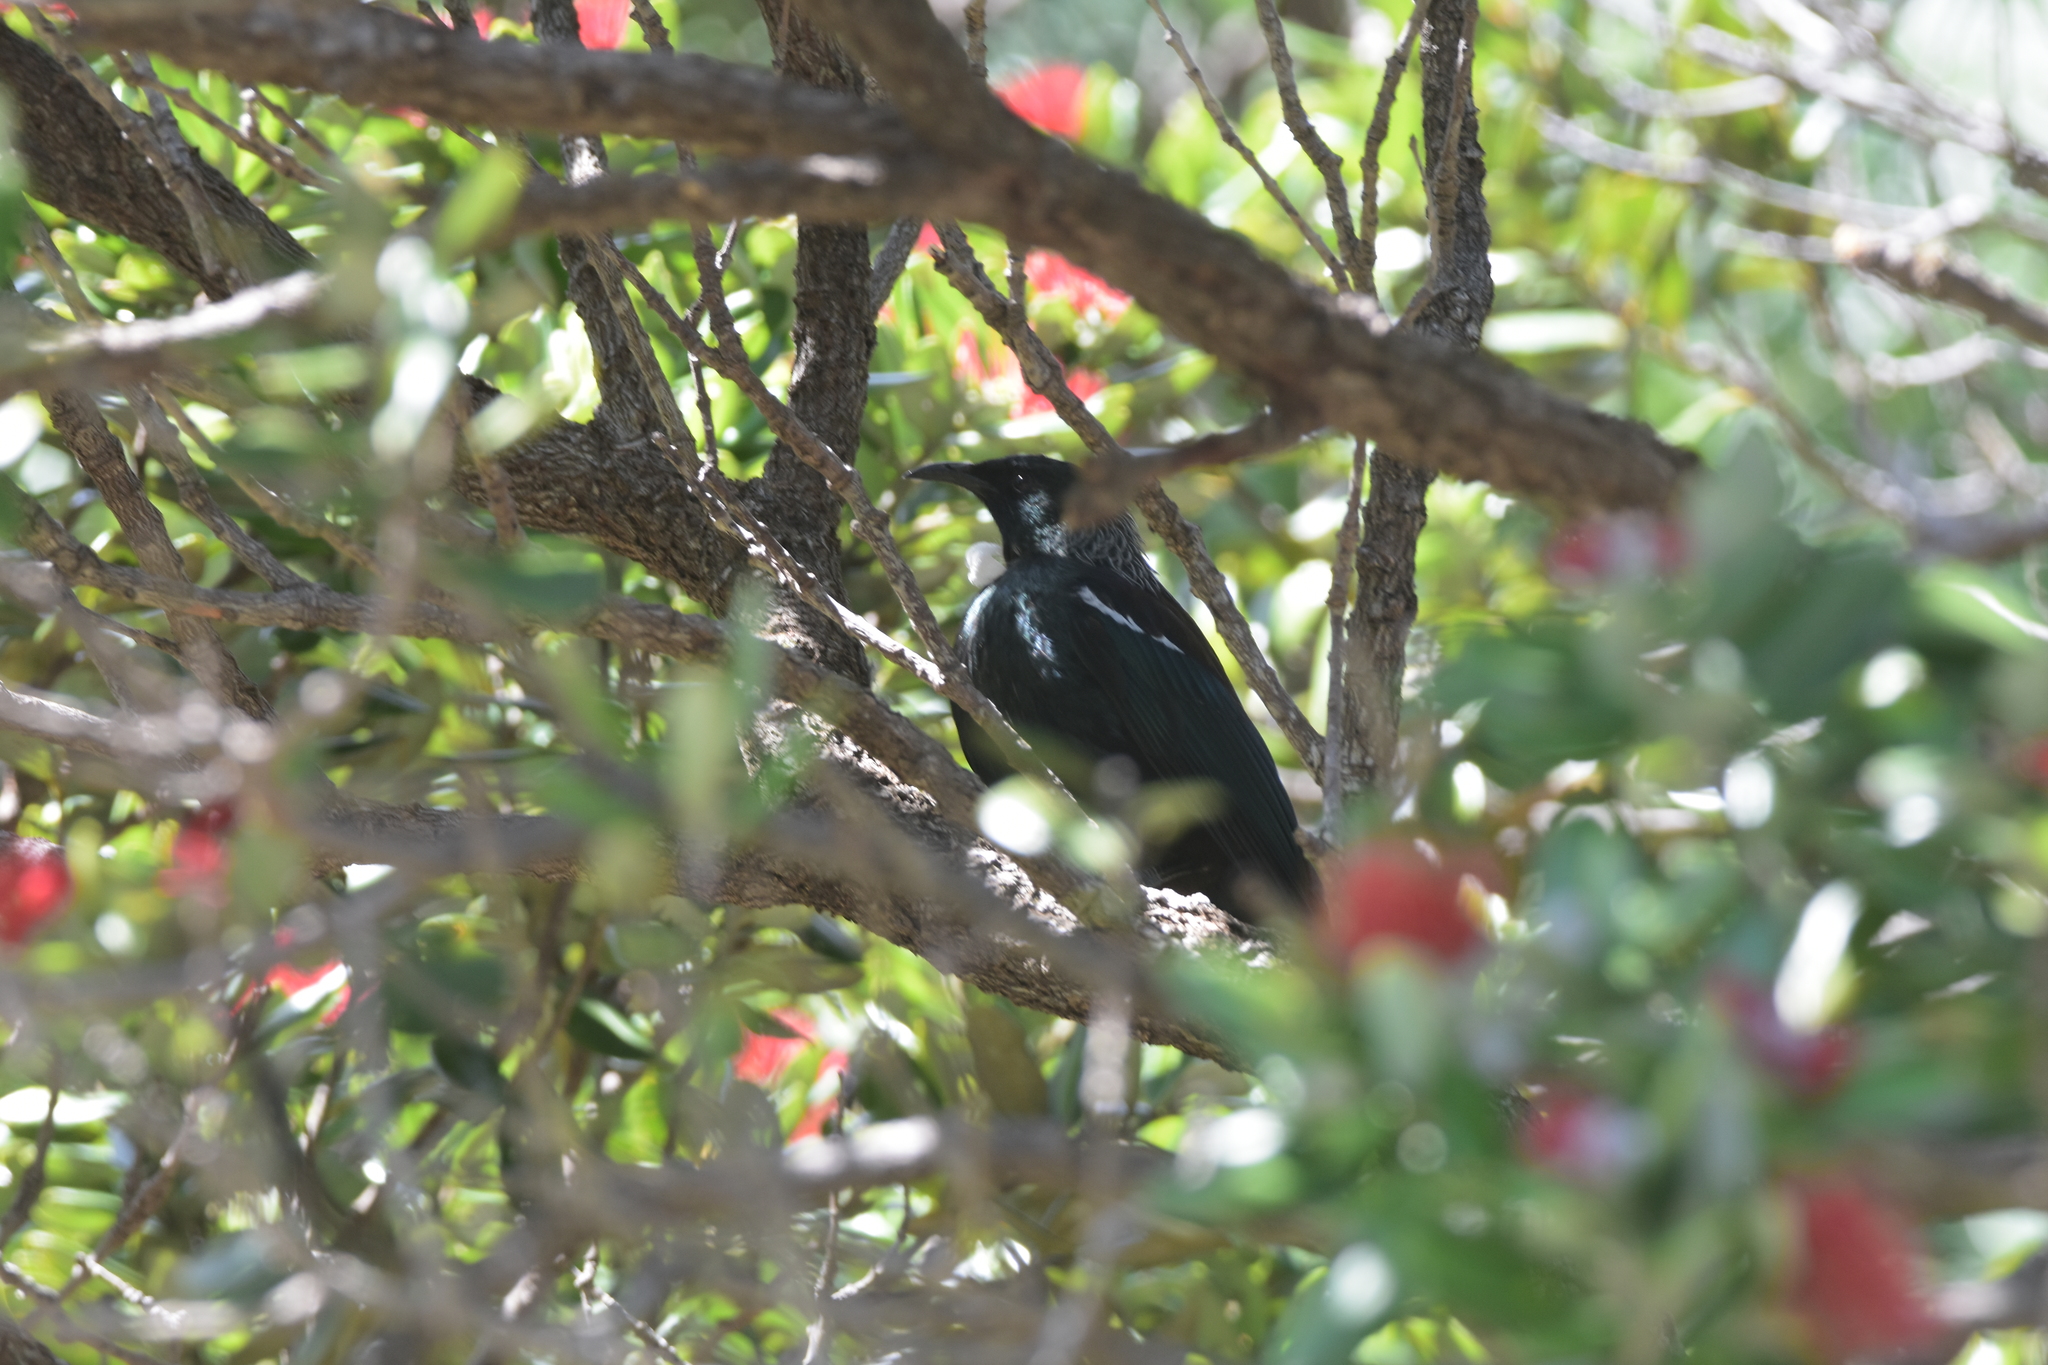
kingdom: Animalia
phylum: Chordata
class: Aves
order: Passeriformes
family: Meliphagidae
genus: Prosthemadera
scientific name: Prosthemadera novaeseelandiae
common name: Tui
